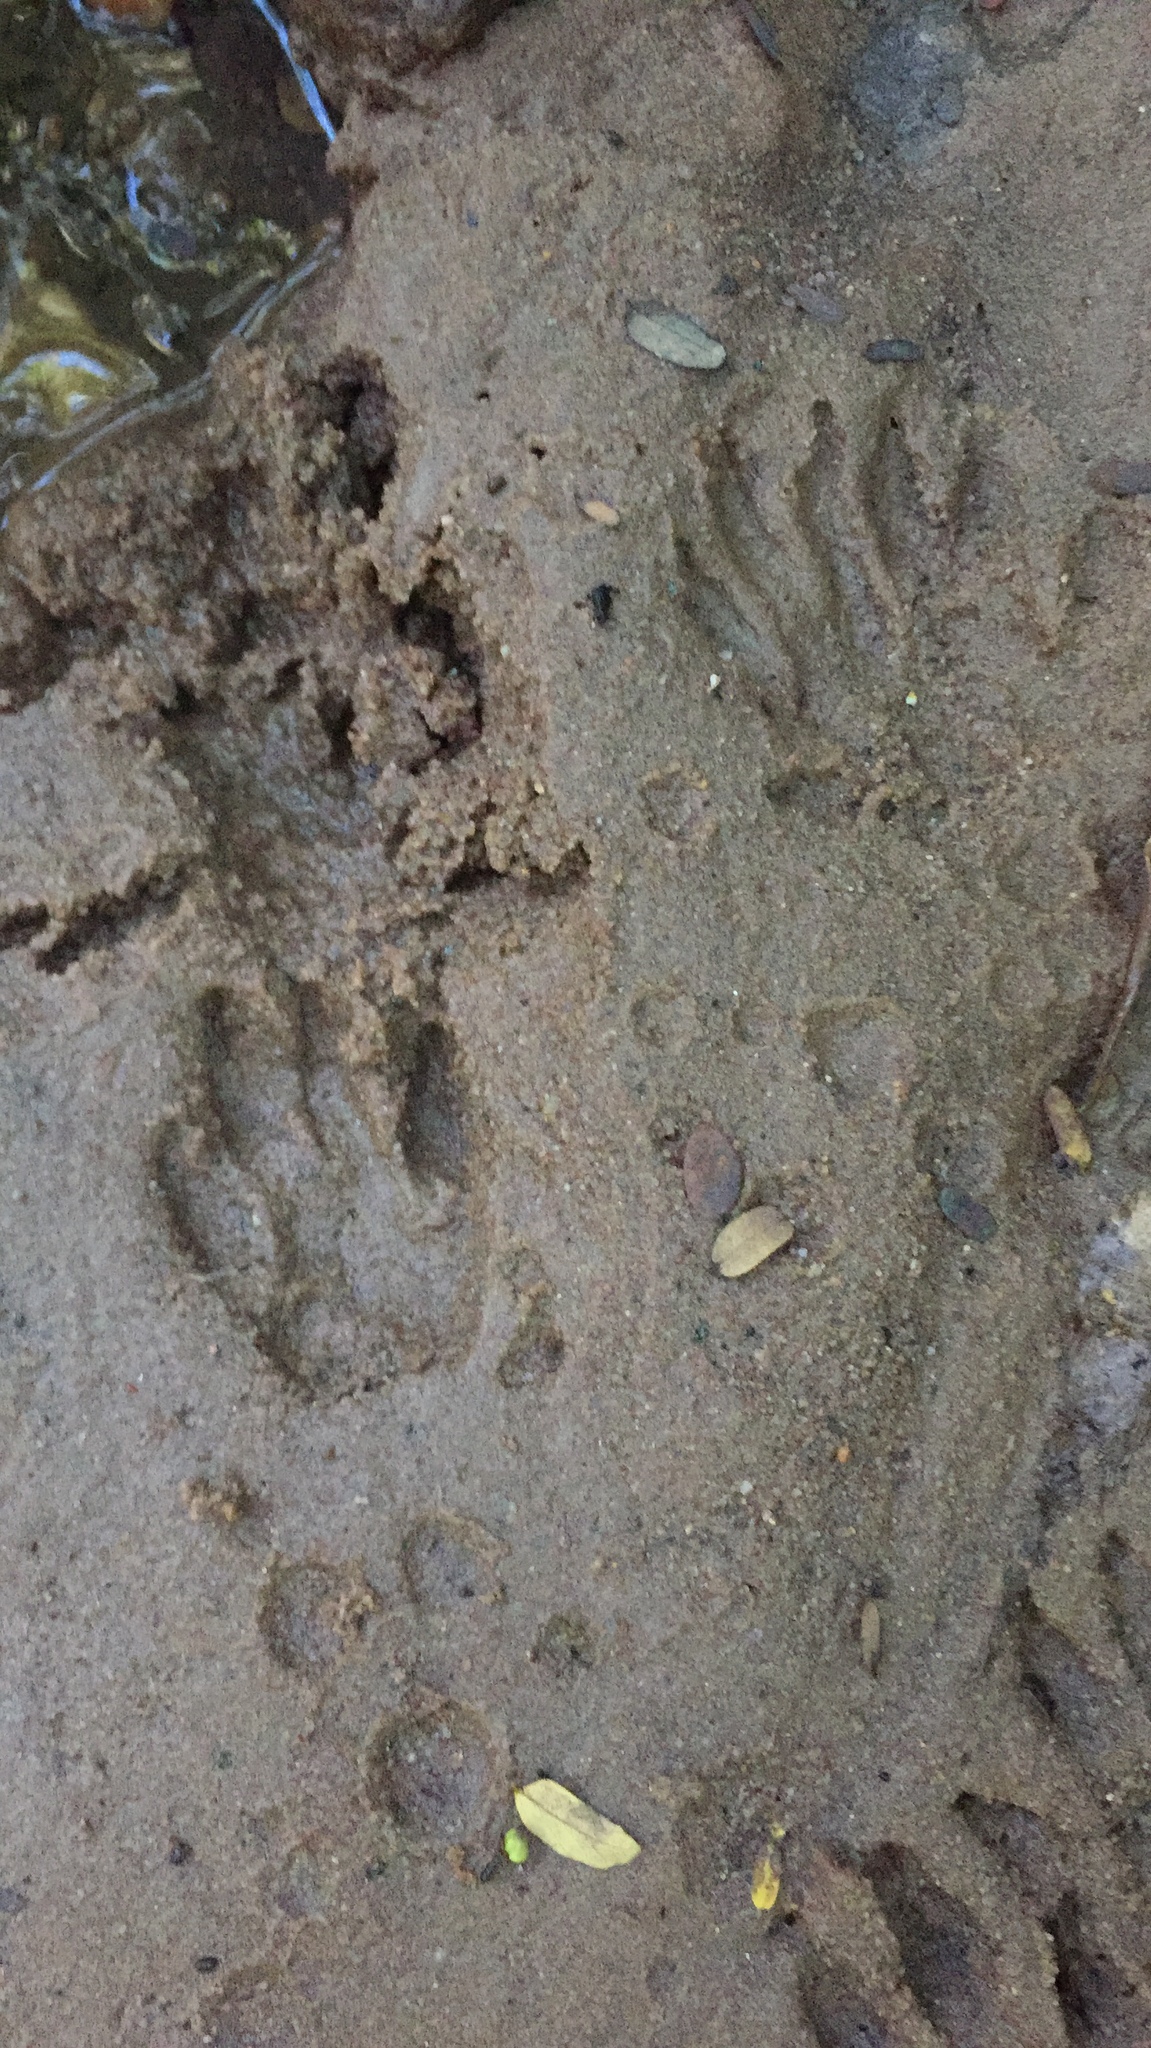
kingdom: Animalia
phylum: Chordata
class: Mammalia
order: Carnivora
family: Herpestidae
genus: Atilax
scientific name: Atilax paludinosus
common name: Marsh mongoose
